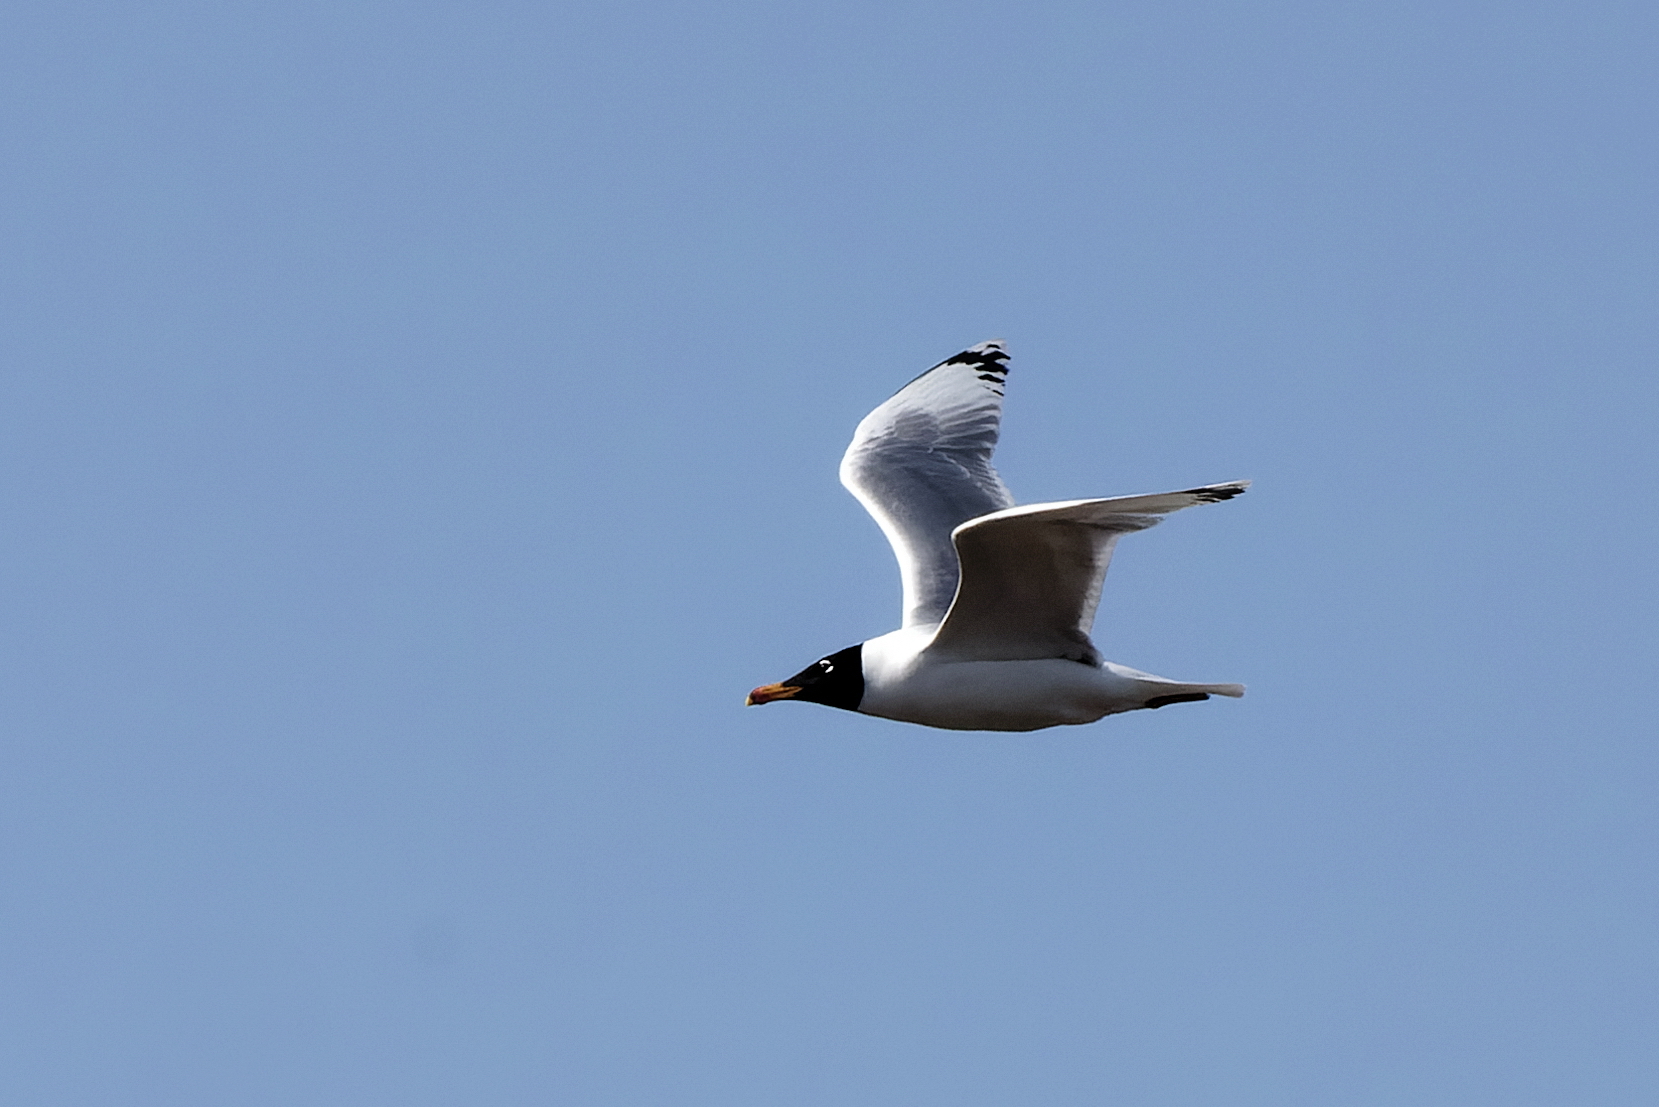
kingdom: Animalia
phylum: Chordata
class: Aves
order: Charadriiformes
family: Laridae
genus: Ichthyaetus
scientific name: Ichthyaetus ichthyaetus
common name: Pallas's gull
